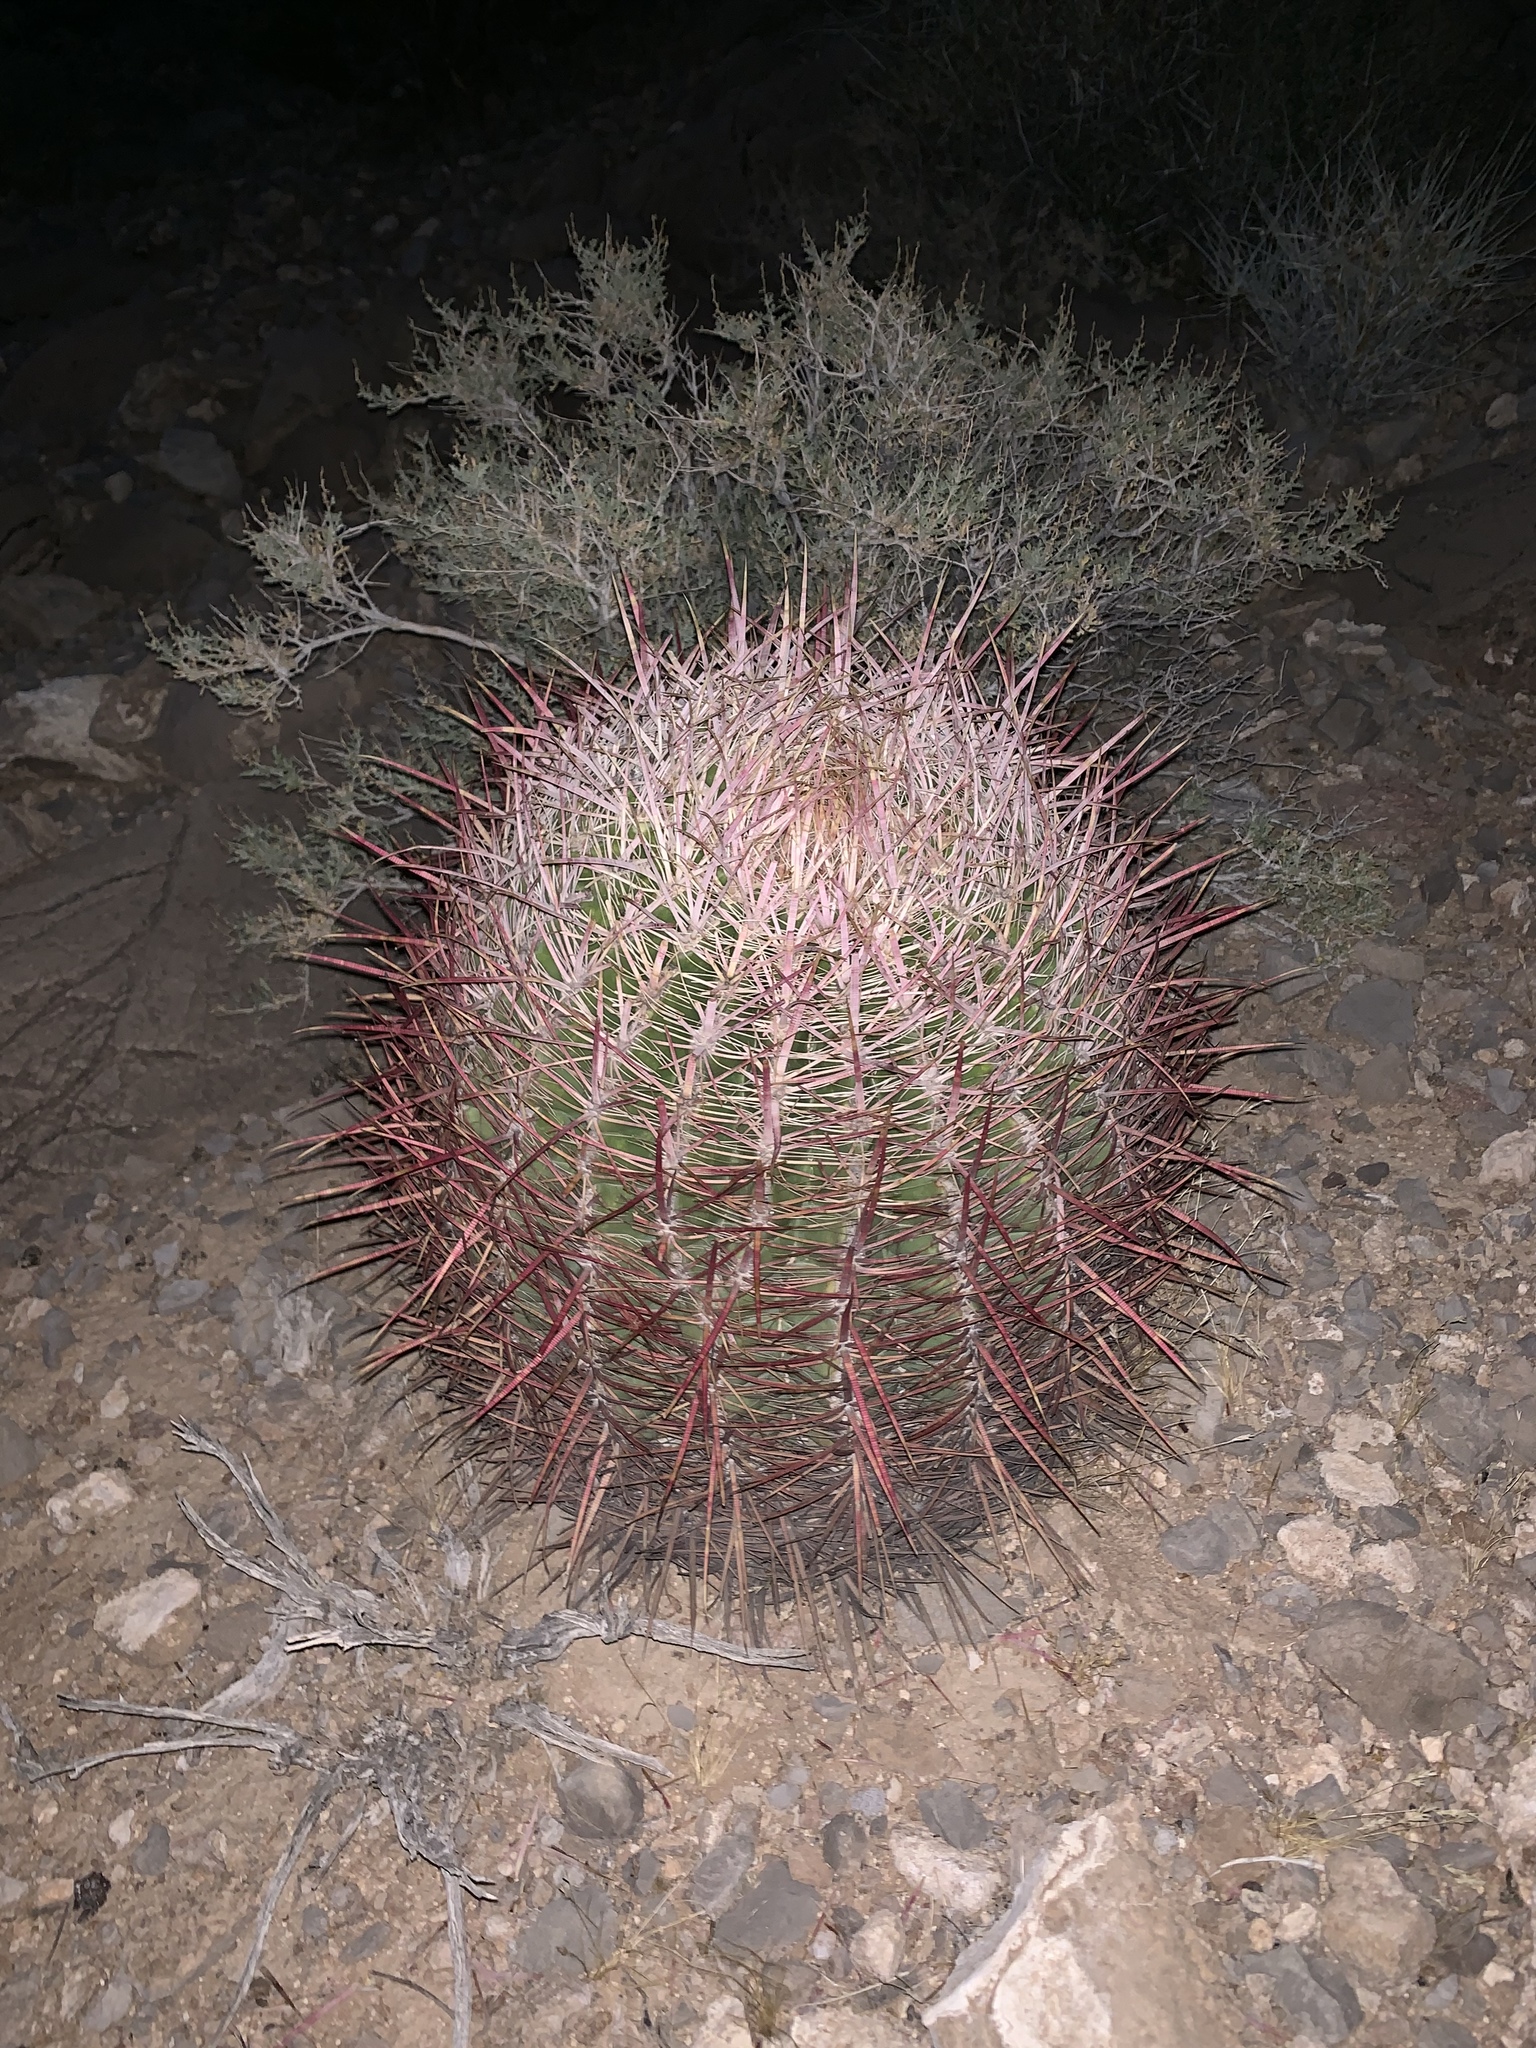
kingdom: Plantae
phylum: Tracheophyta
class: Magnoliopsida
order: Caryophyllales
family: Cactaceae
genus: Ferocactus
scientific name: Ferocactus cylindraceus
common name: California barrel cactus
